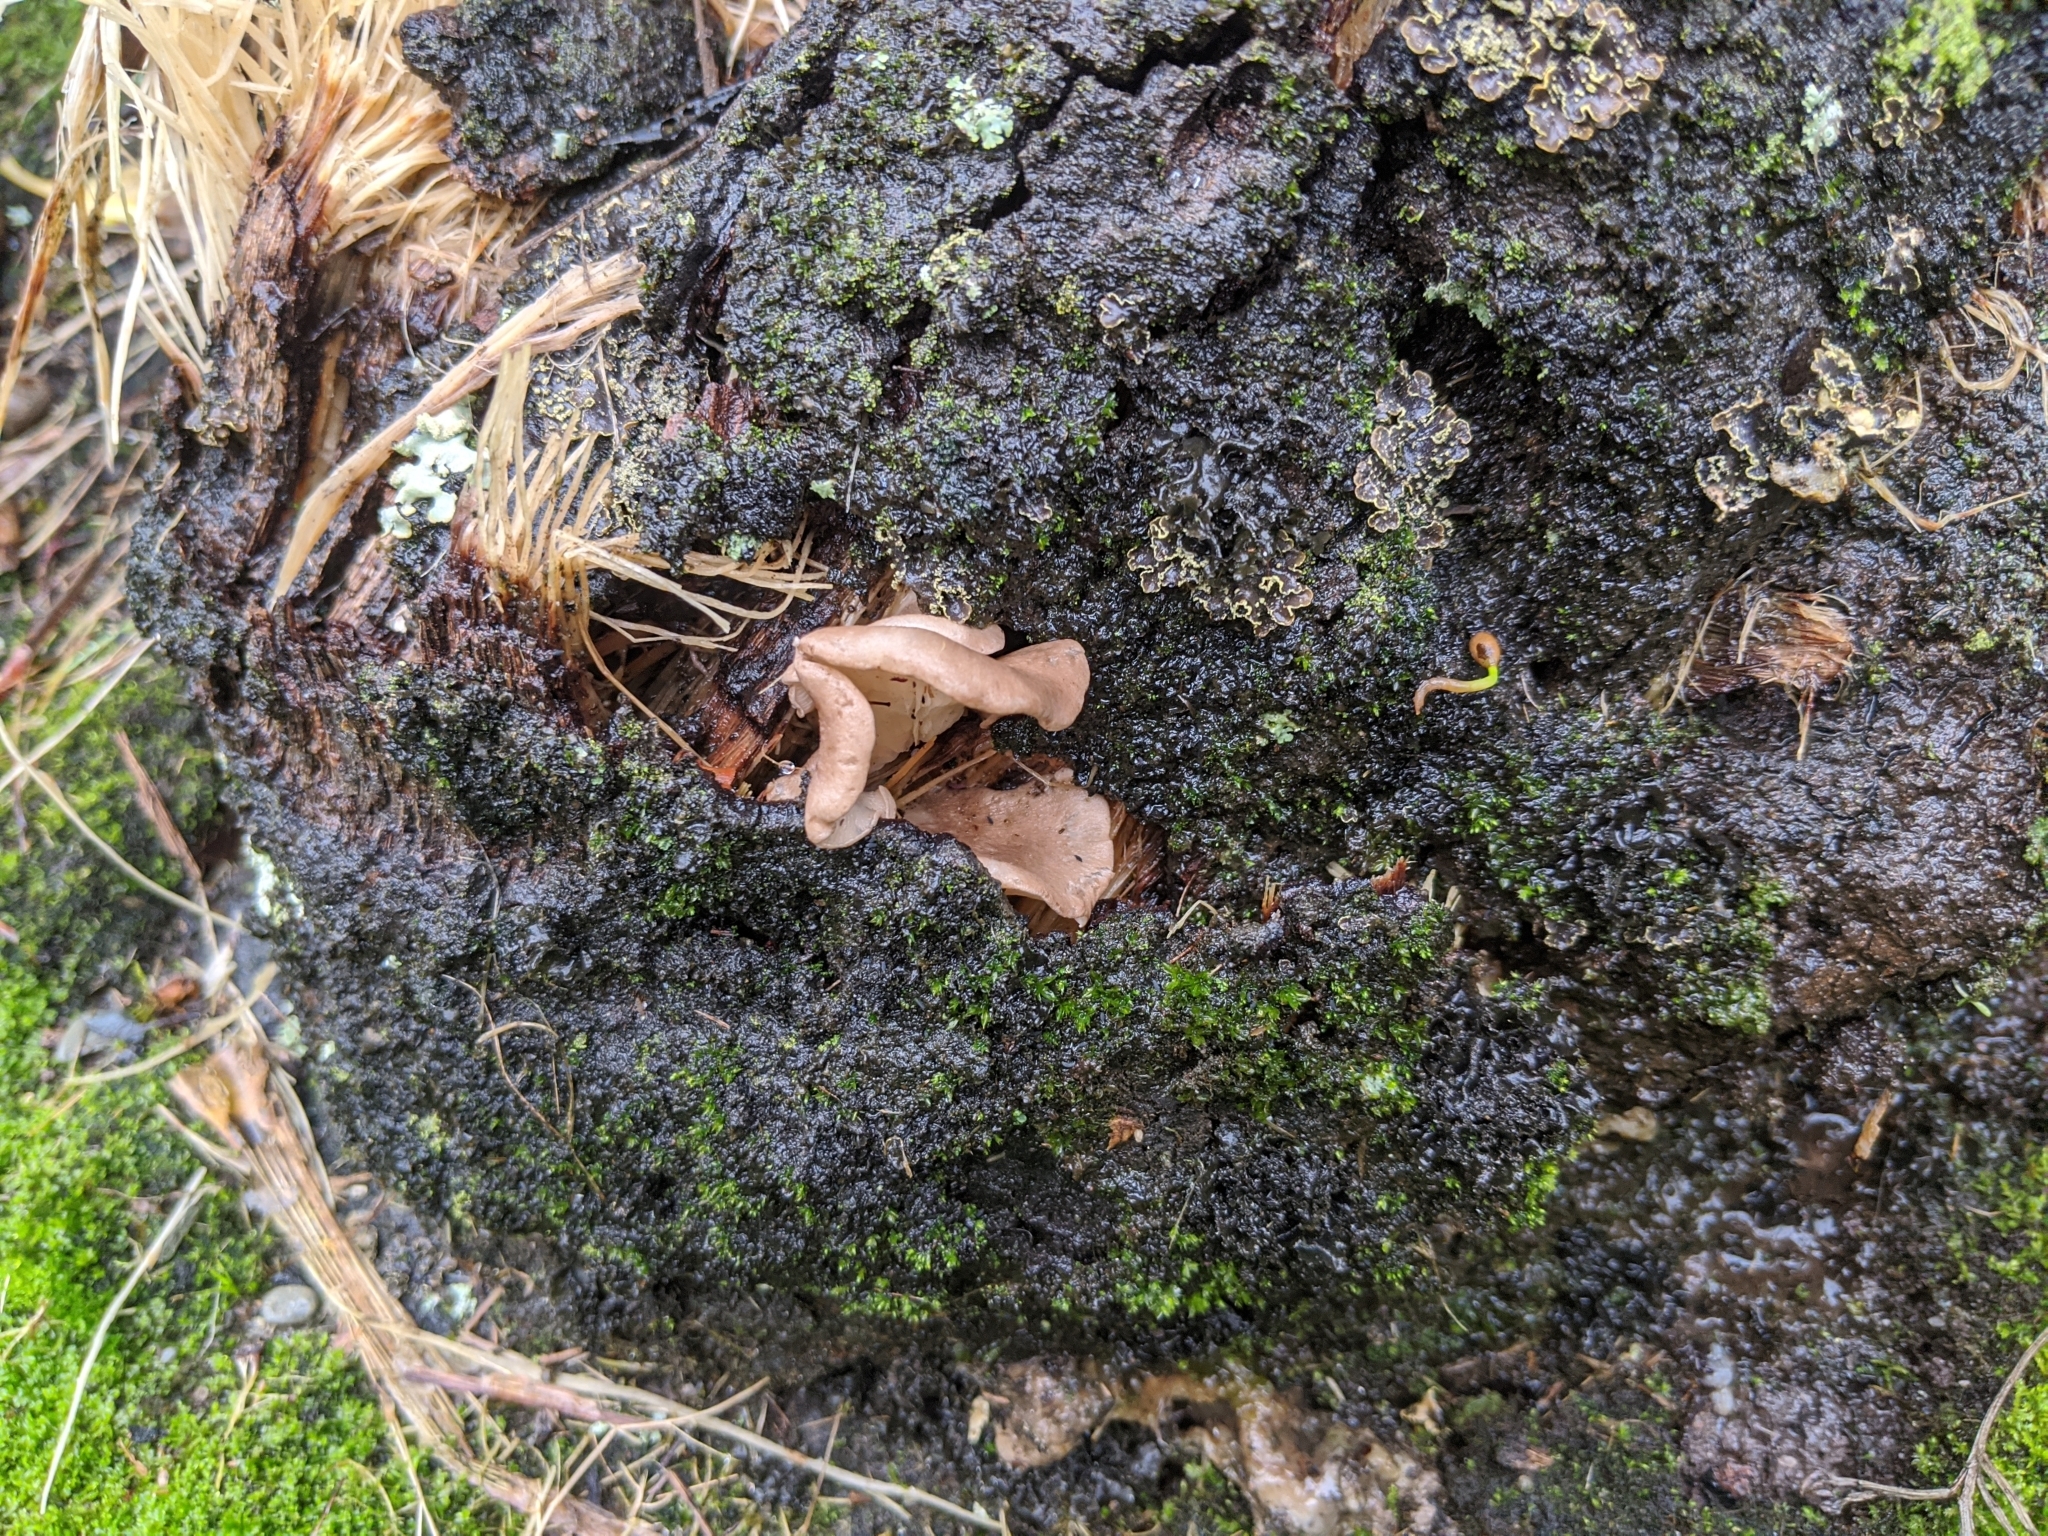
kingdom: Fungi
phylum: Basidiomycota
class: Agaricomycetes
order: Agaricales
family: Pleurotaceae
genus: Pleurotus
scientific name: Pleurotus parsonsiae
